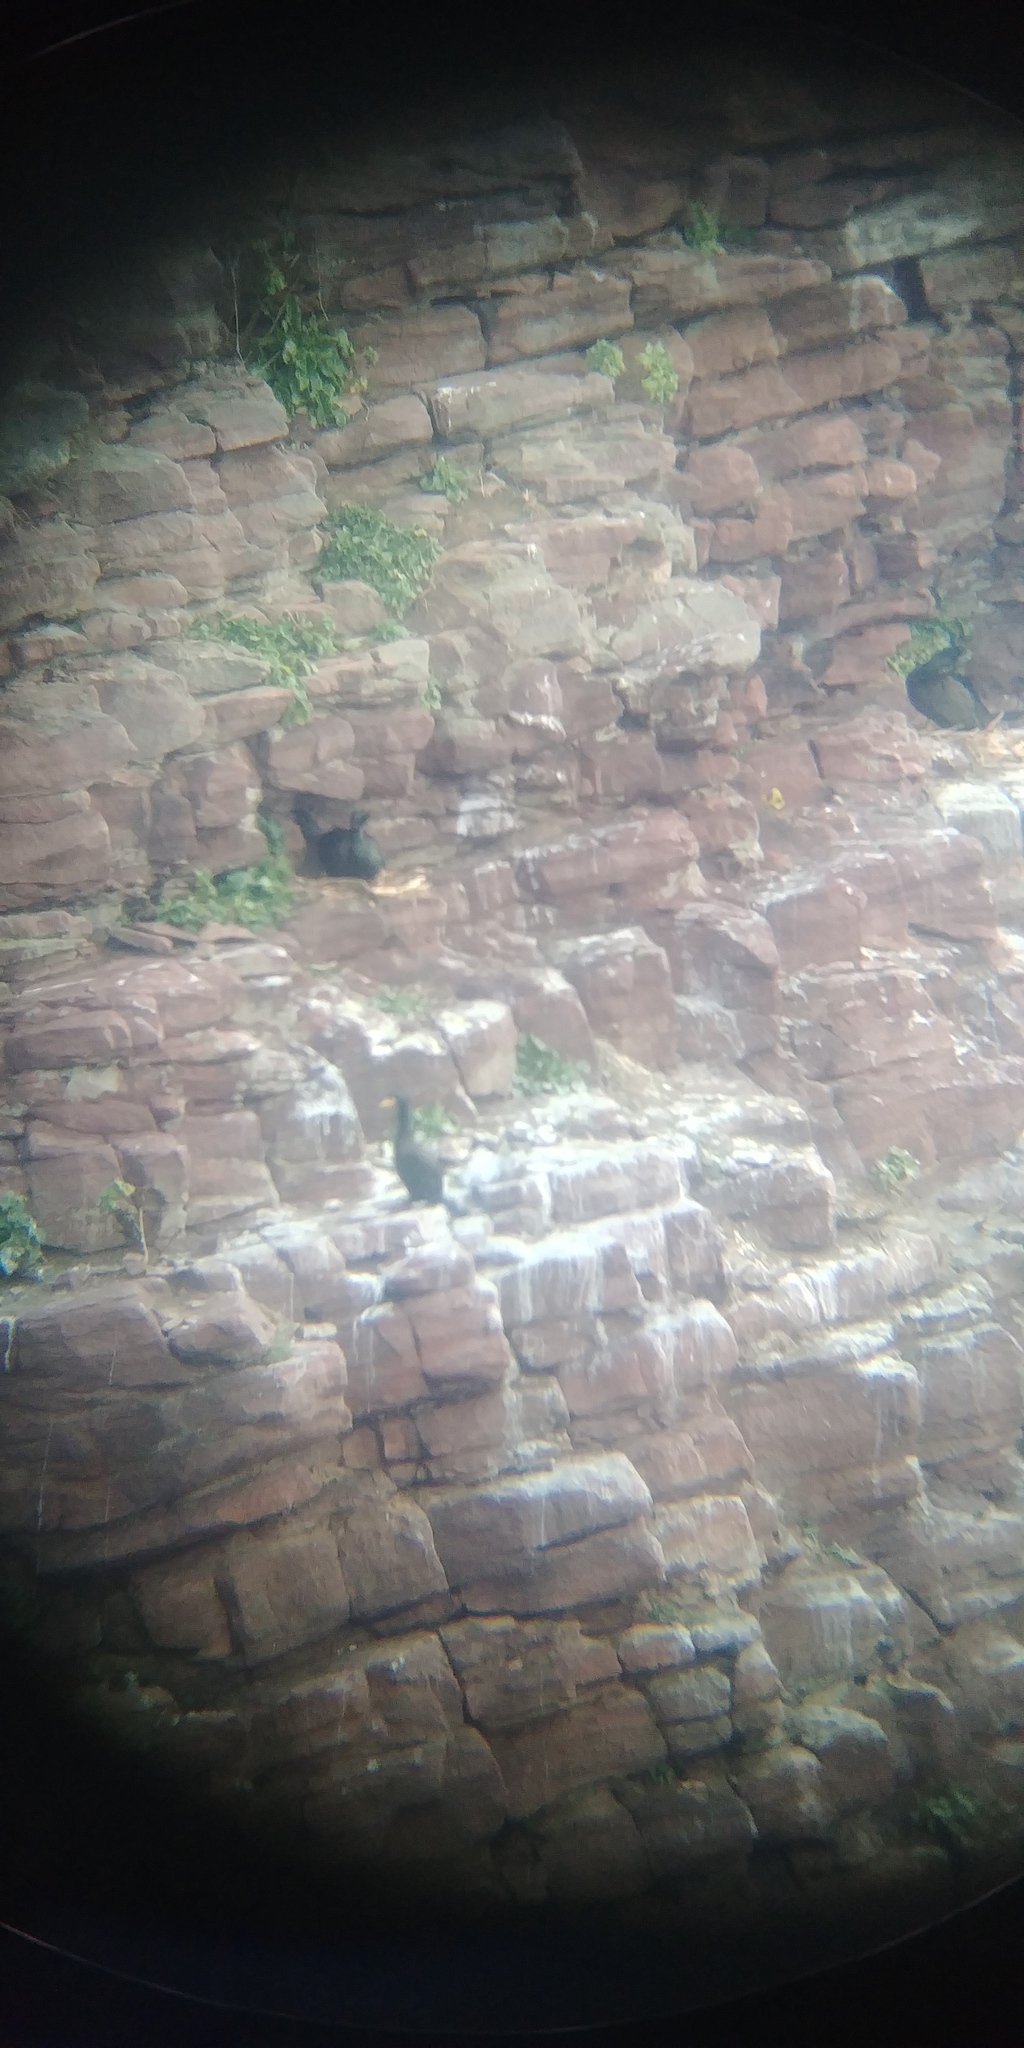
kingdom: Animalia
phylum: Chordata
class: Aves
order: Suliformes
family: Phalacrocoracidae
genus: Phalacrocorax
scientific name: Phalacrocorax aristotelis
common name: European shag
